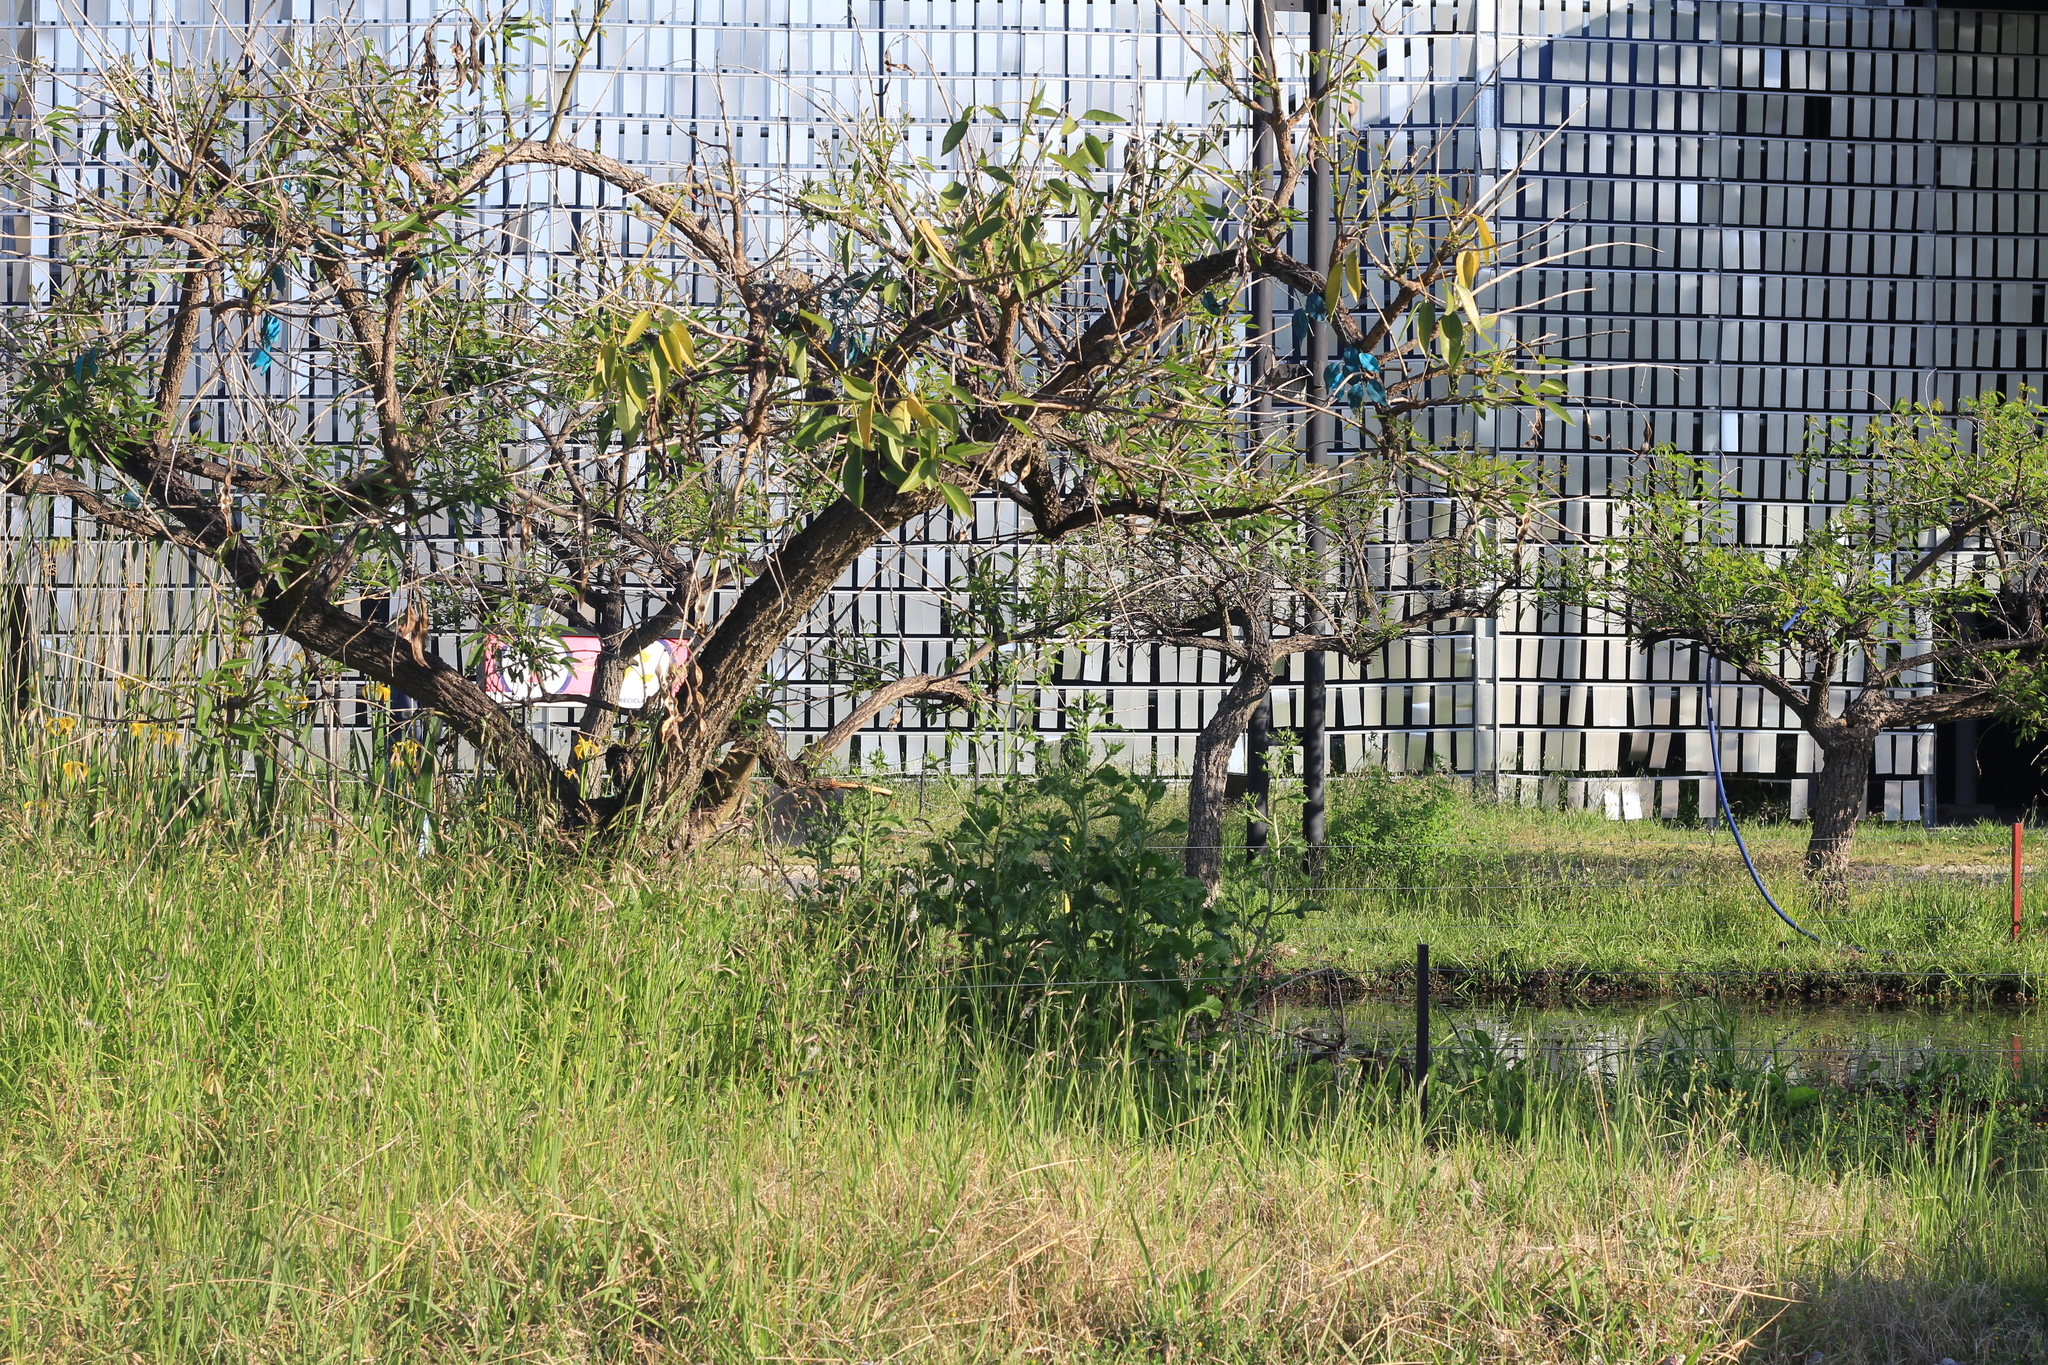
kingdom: Plantae
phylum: Tracheophyta
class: Magnoliopsida
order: Fabales
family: Fabaceae
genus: Erythrina
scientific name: Erythrina crista-galli
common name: Cockspur coral tree
